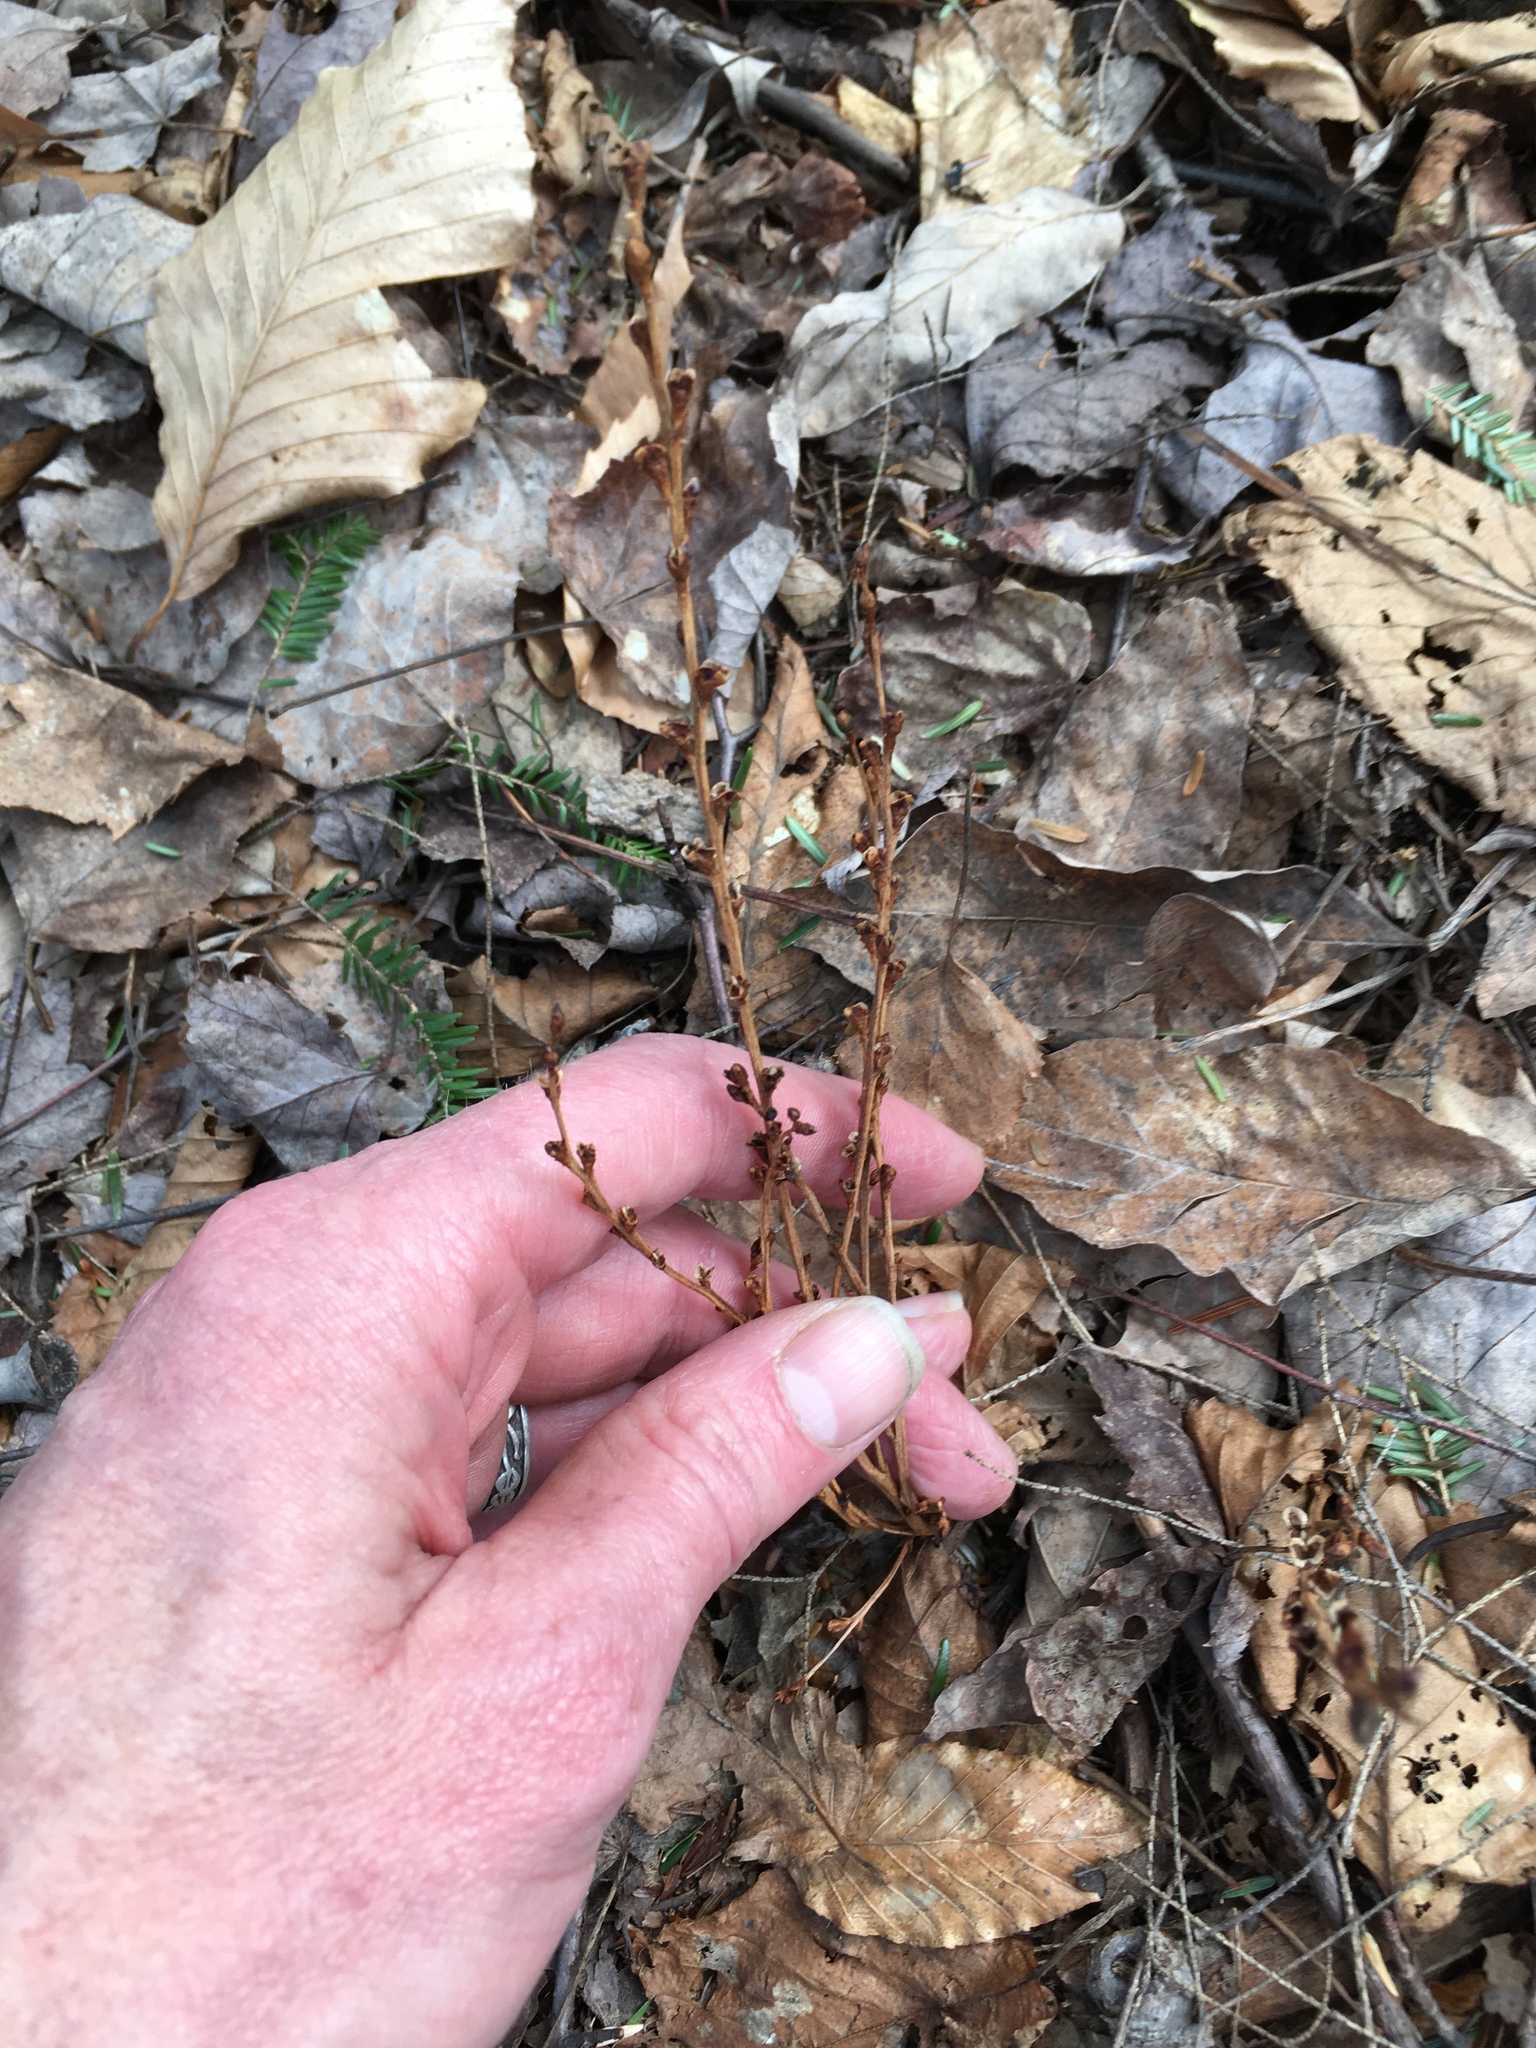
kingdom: Plantae
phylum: Tracheophyta
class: Magnoliopsida
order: Lamiales
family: Orobanchaceae
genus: Epifagus
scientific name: Epifagus virginiana
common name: Beechdrops
